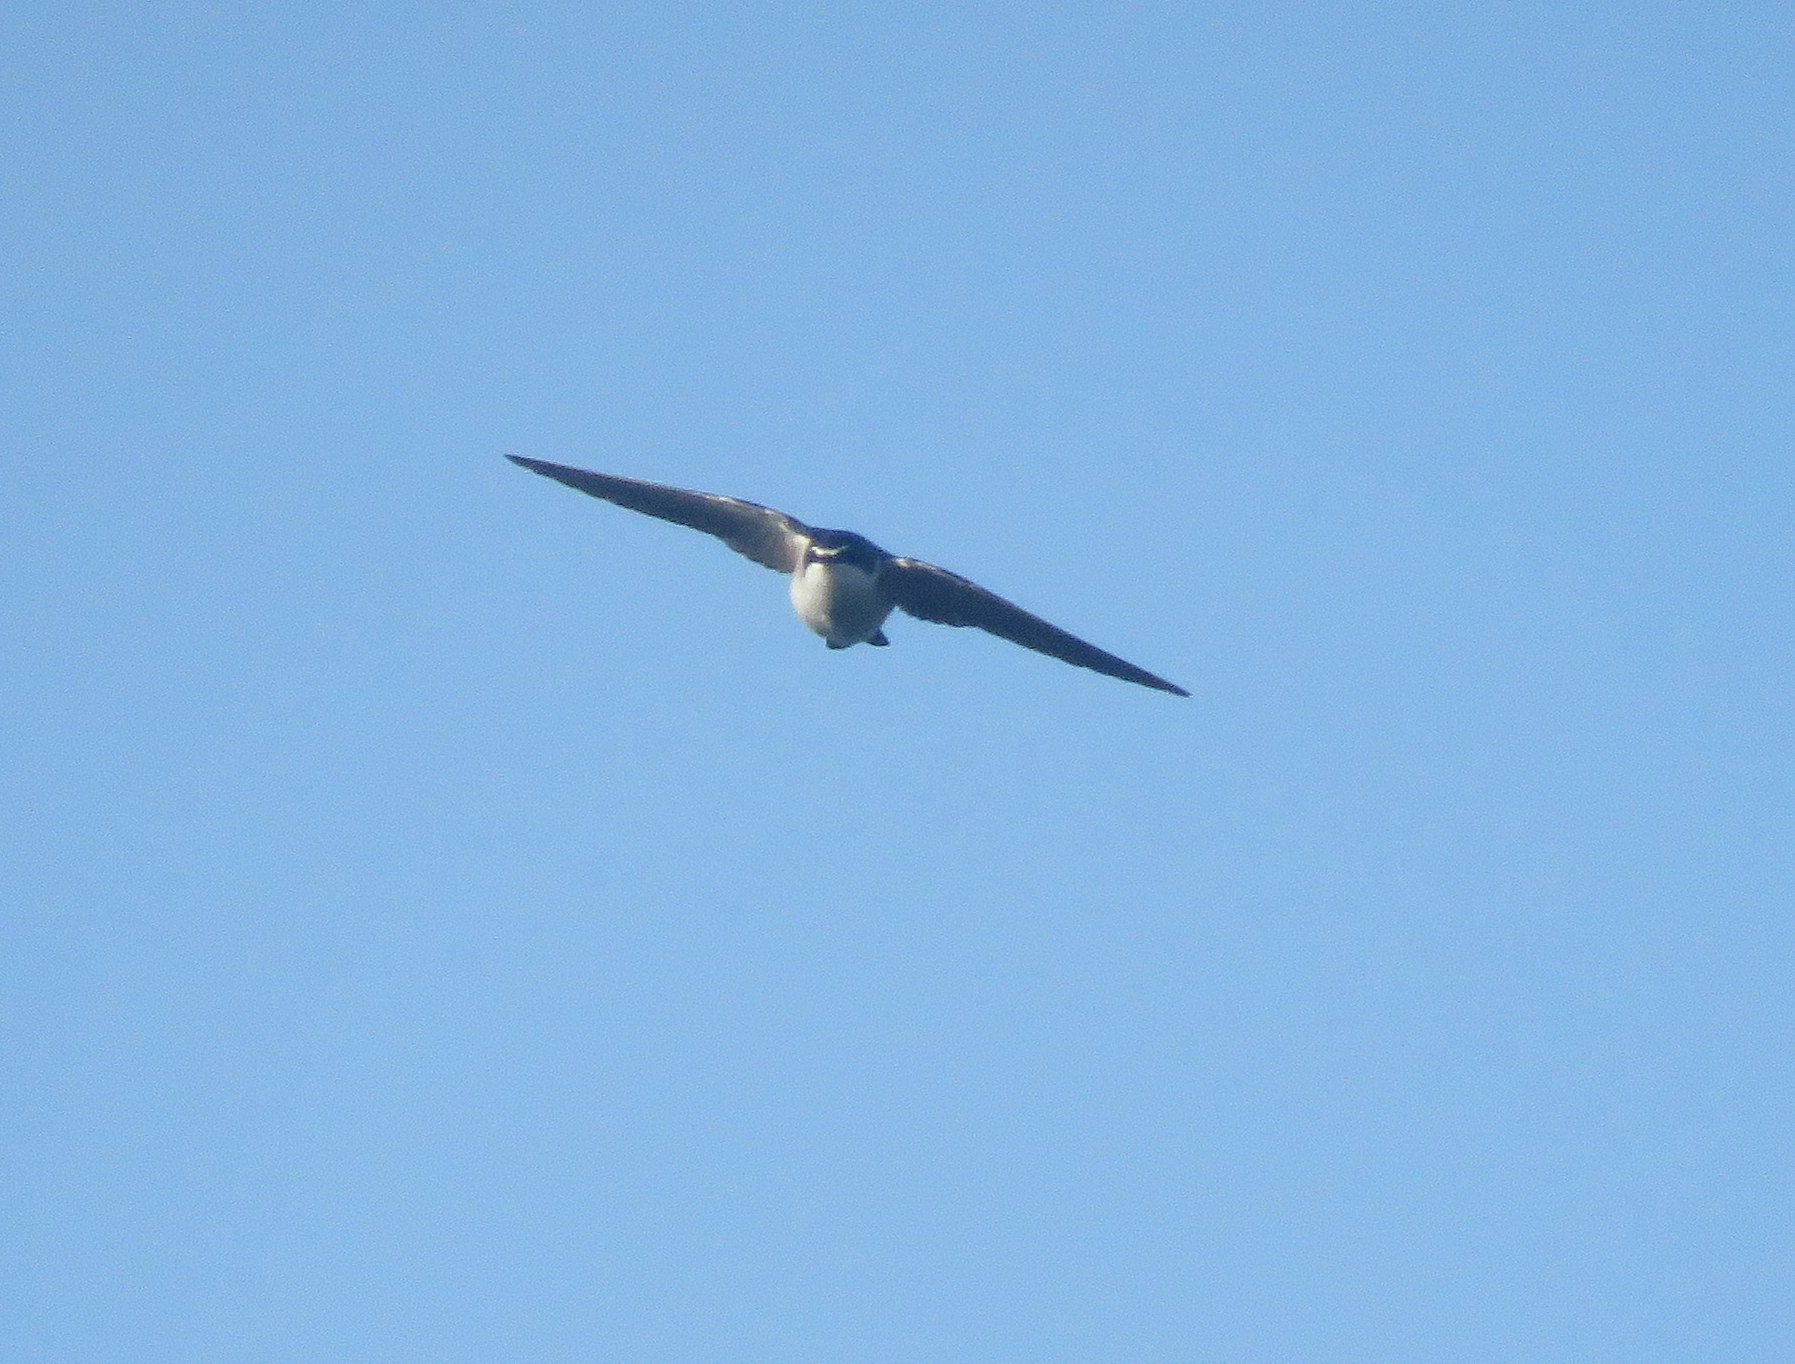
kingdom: Animalia
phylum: Chordata
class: Aves
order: Passeriformes
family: Hirundinidae
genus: Tachycineta
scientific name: Tachycineta leucorrhoa
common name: White-rumped swallow
